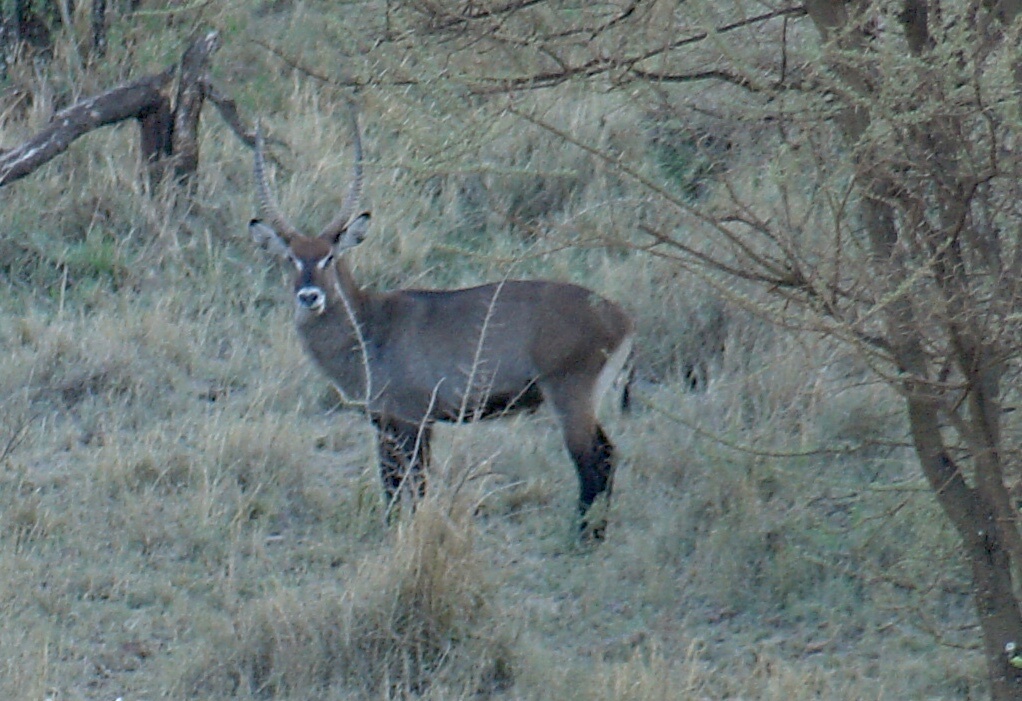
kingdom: Animalia
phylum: Chordata
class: Mammalia
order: Artiodactyla
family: Bovidae
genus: Kobus
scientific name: Kobus ellipsiprymnus
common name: Waterbuck
